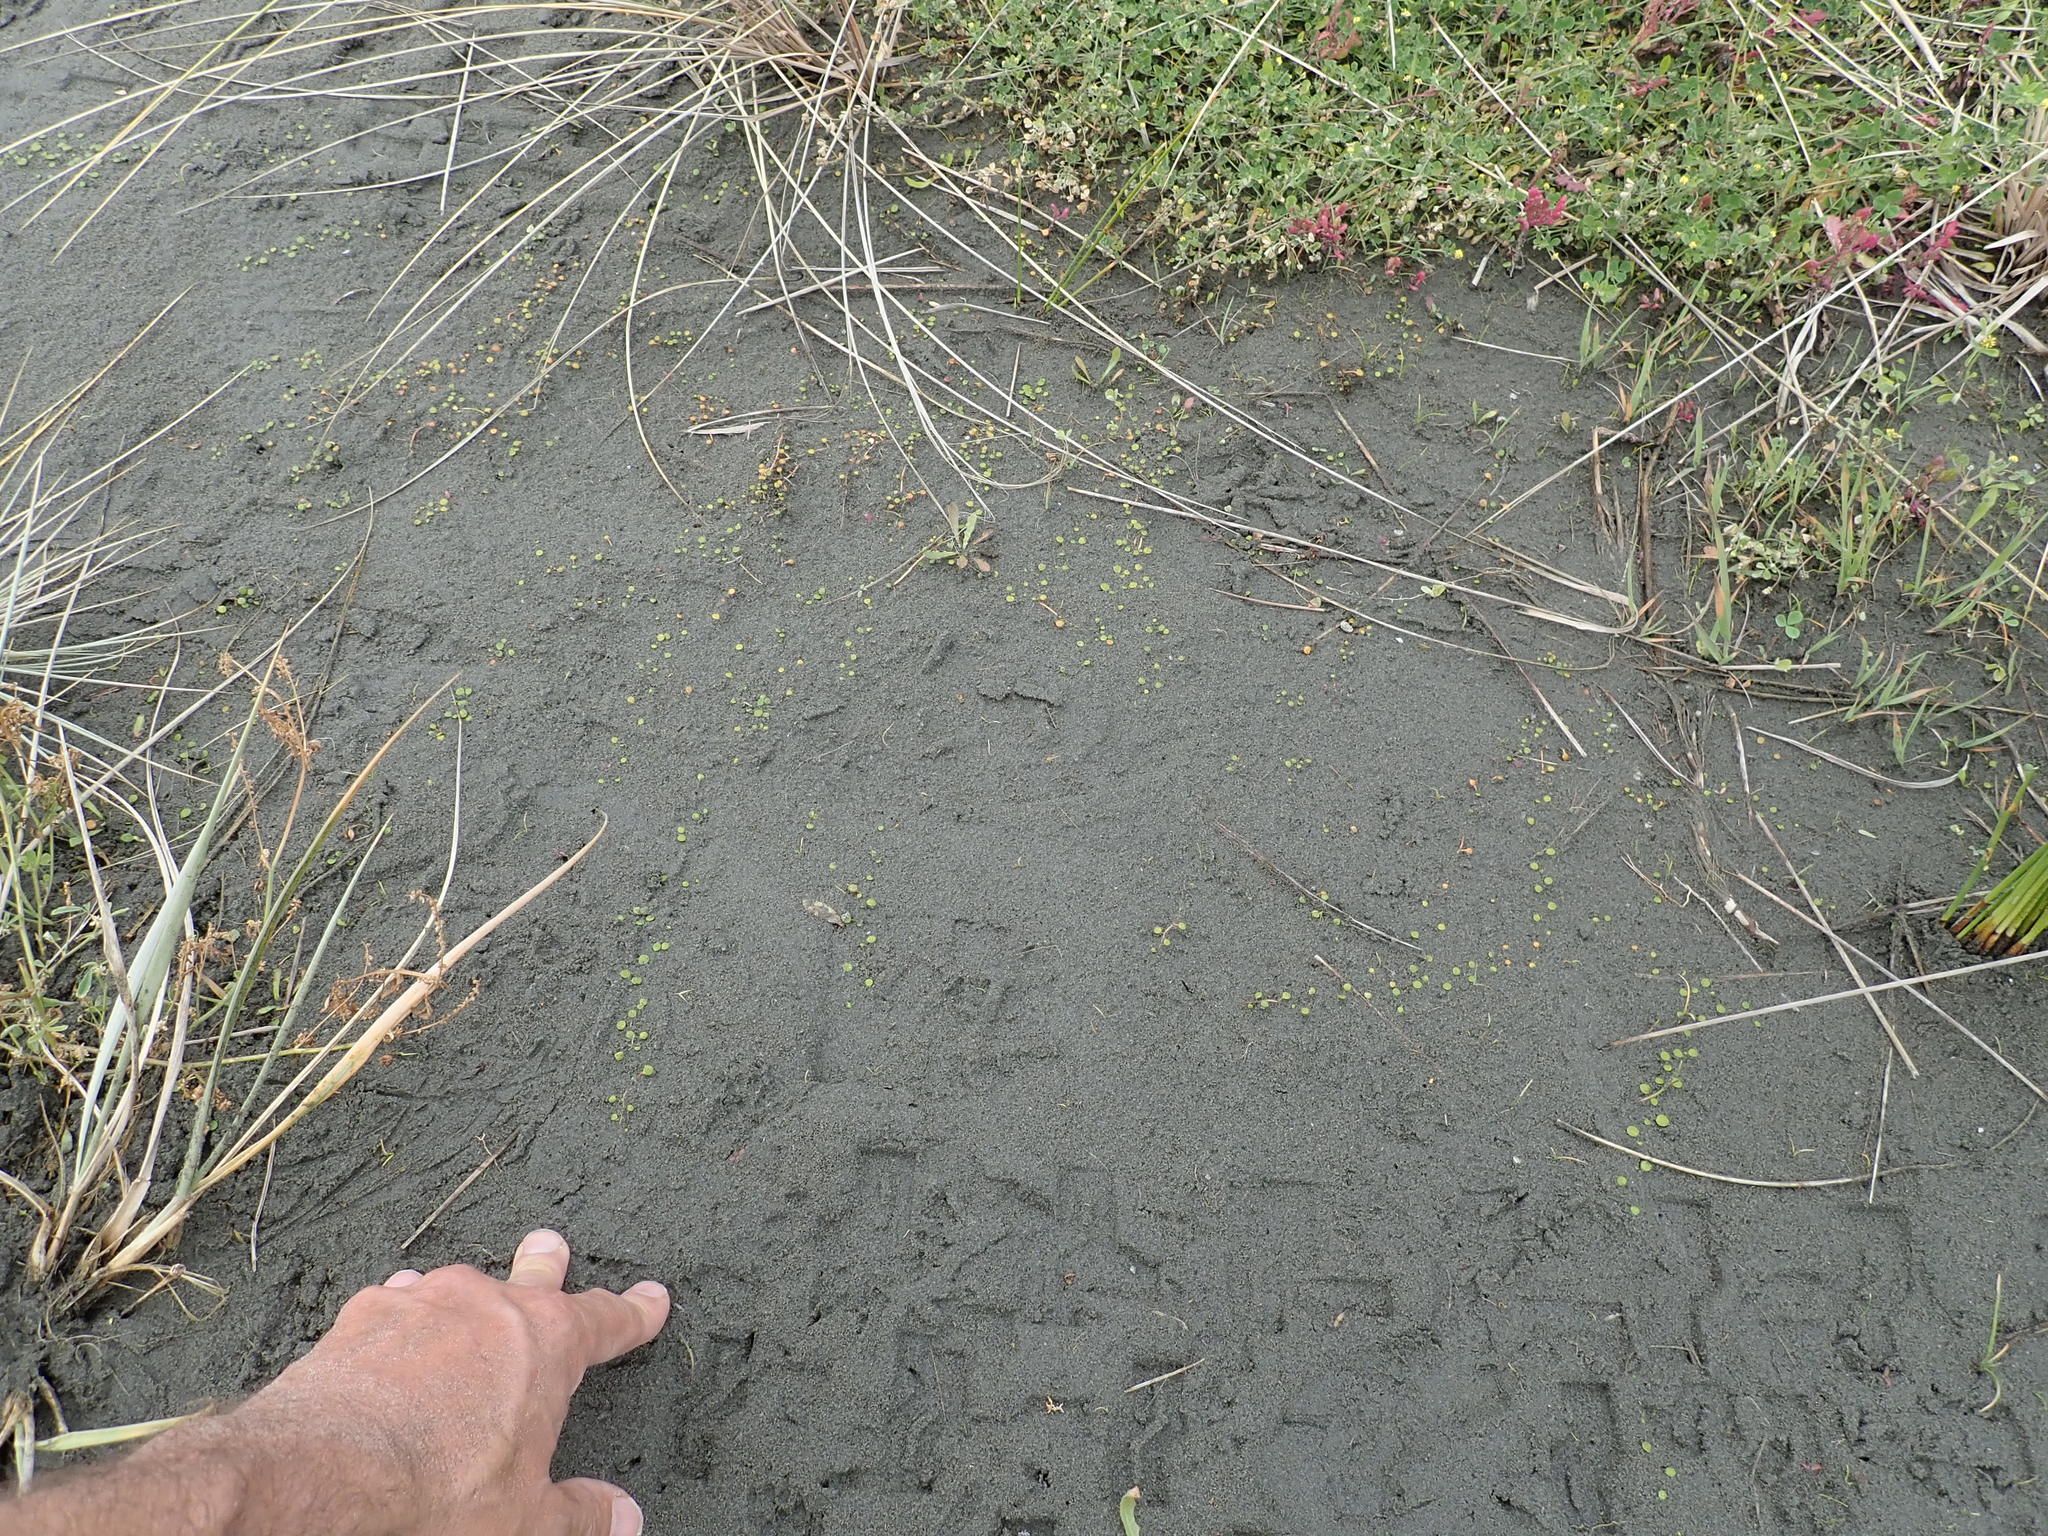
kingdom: Plantae
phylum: Tracheophyta
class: Magnoliopsida
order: Asterales
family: Goodeniaceae
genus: Goodenia
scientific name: Goodenia heenanii
